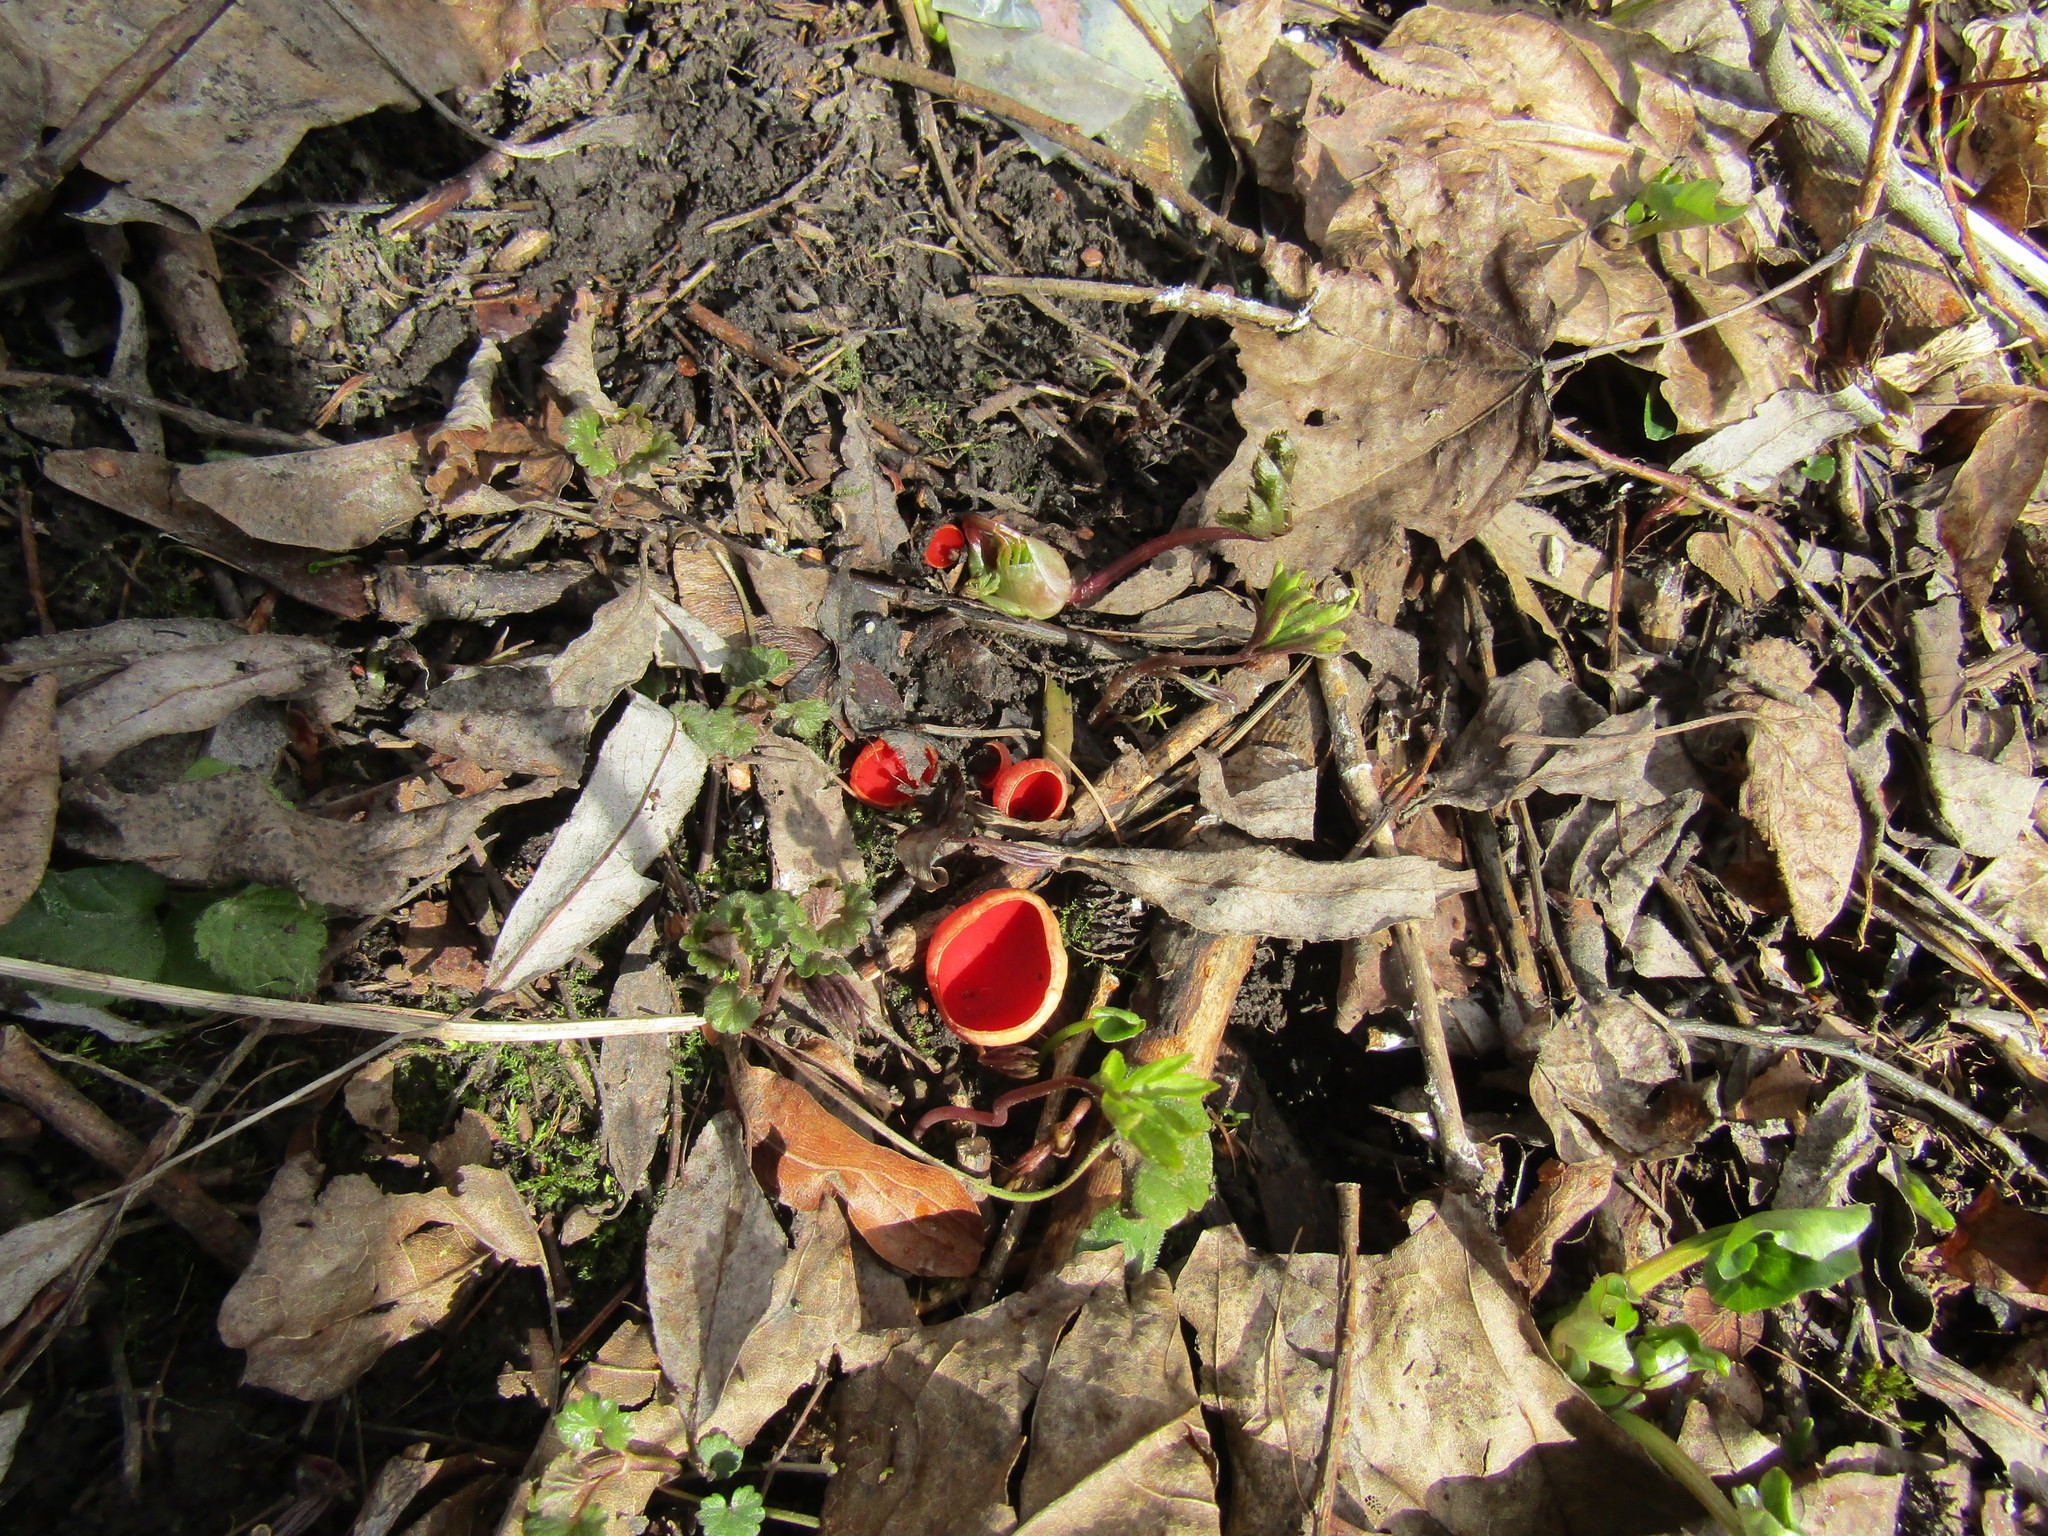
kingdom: Fungi
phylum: Ascomycota
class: Pezizomycetes
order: Pezizales
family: Sarcoscyphaceae
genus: Sarcoscypha
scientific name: Sarcoscypha
